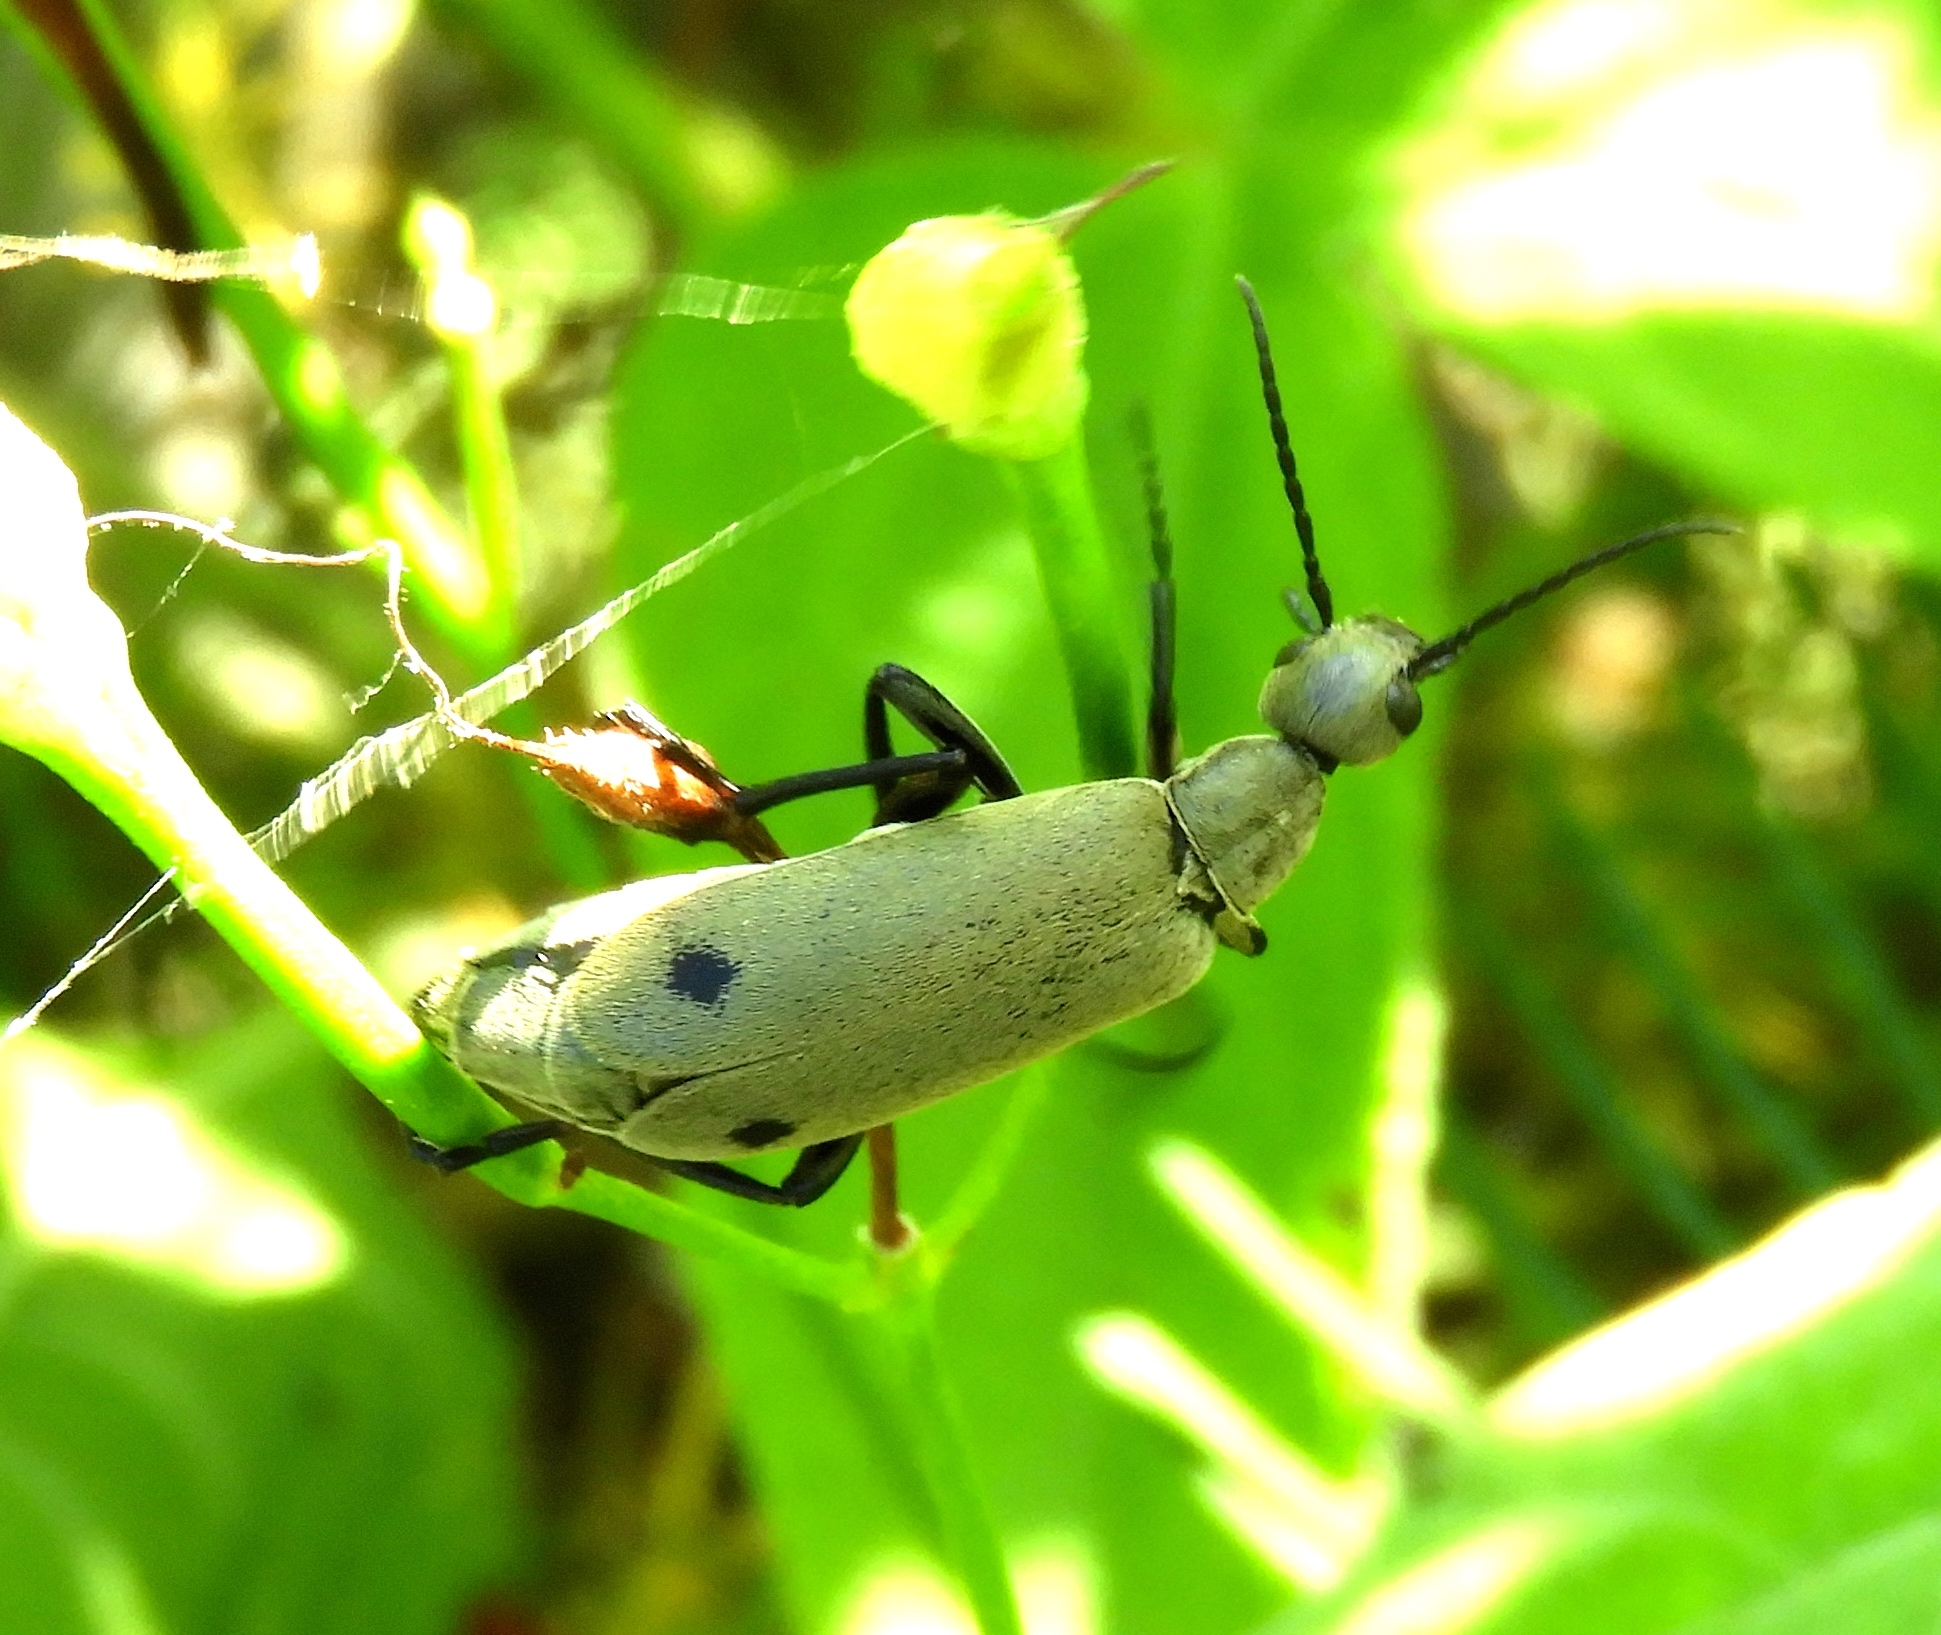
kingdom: Animalia
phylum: Arthropoda
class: Insecta
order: Coleoptera
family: Meloidae
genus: Epicauta
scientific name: Epicauta bipunctata
